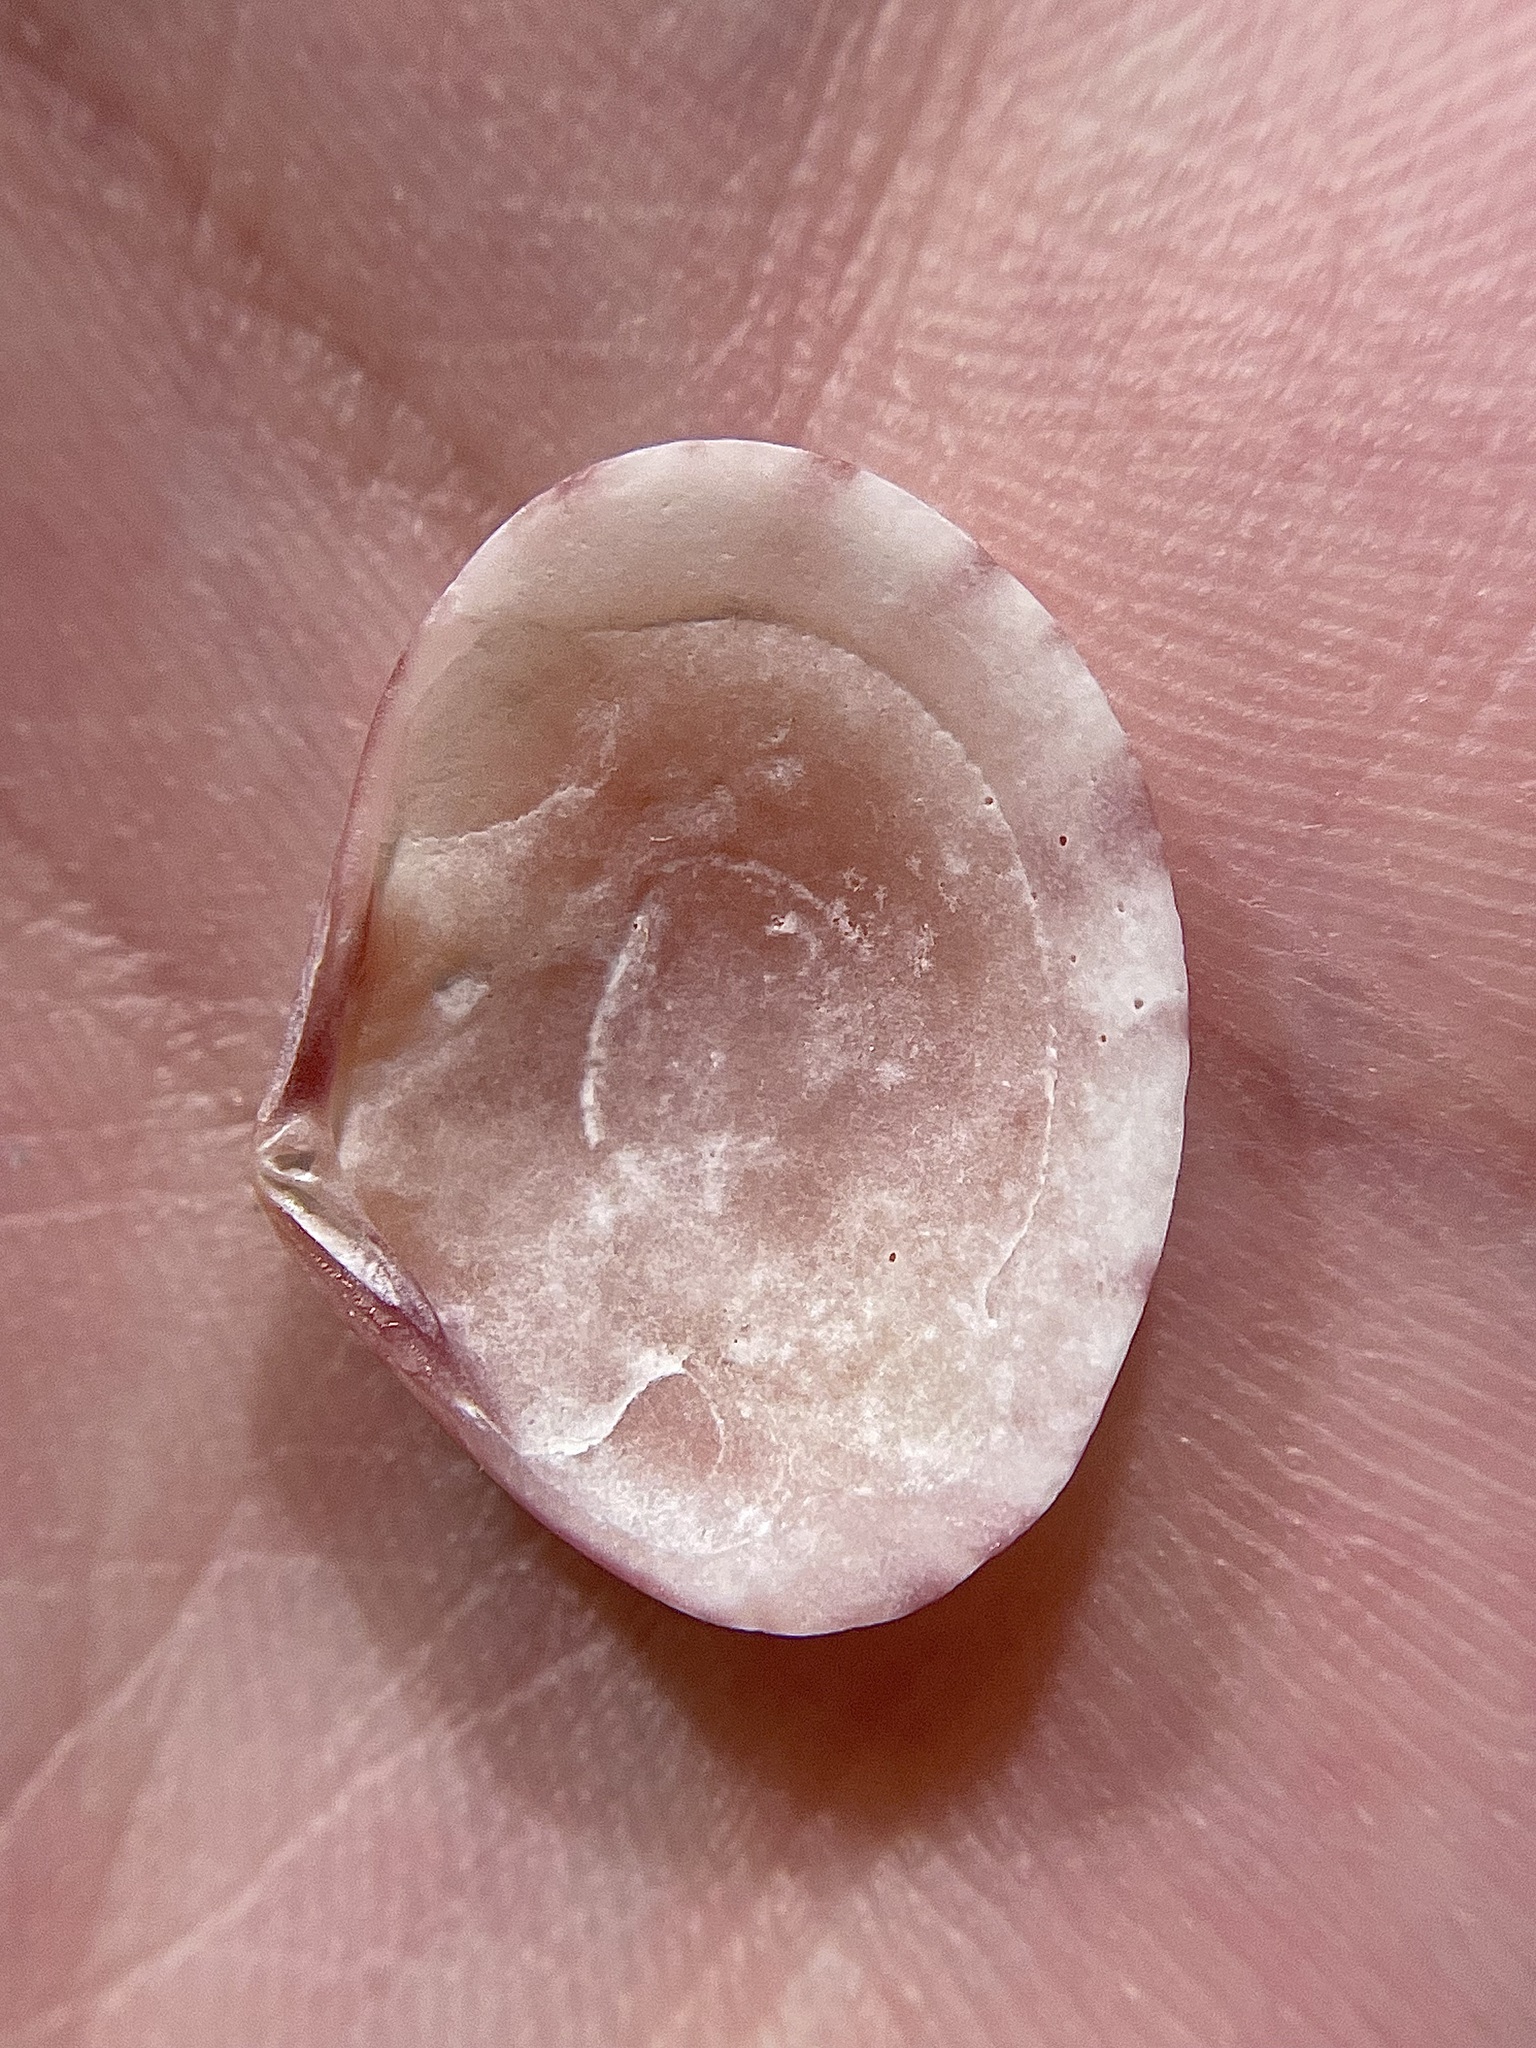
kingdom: Animalia
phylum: Mollusca
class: Bivalvia
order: Cardiida
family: Semelidae
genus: Semele
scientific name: Semele purpurascens
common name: Purplish semele
